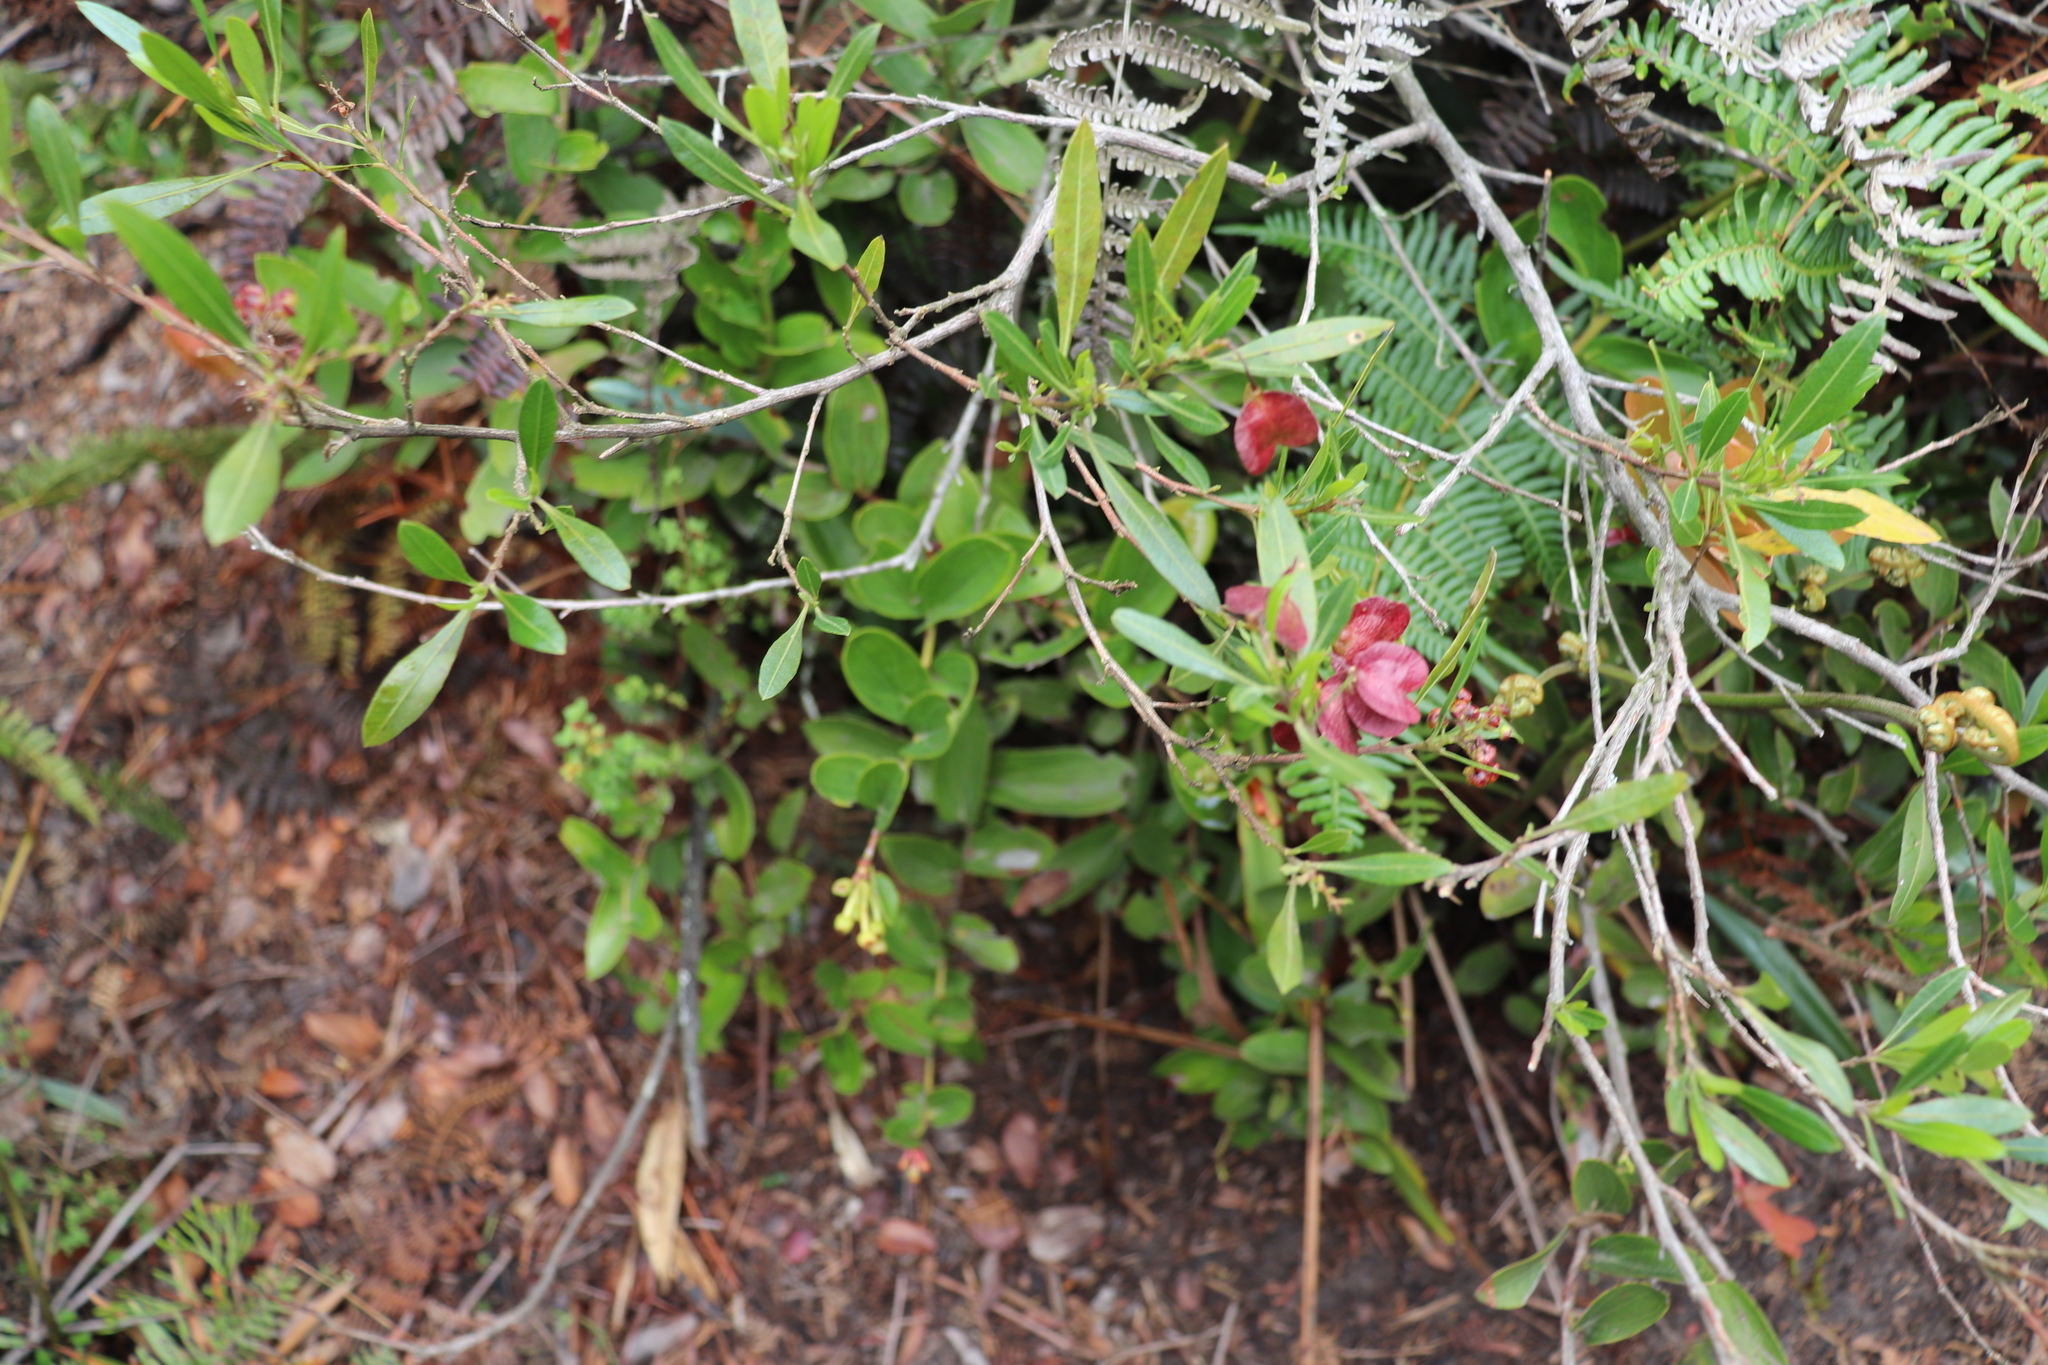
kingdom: Plantae
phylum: Tracheophyta
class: Magnoliopsida
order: Sapindales
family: Sapindaceae
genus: Dodonaea
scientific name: Dodonaea viscosa
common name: Hopbush
